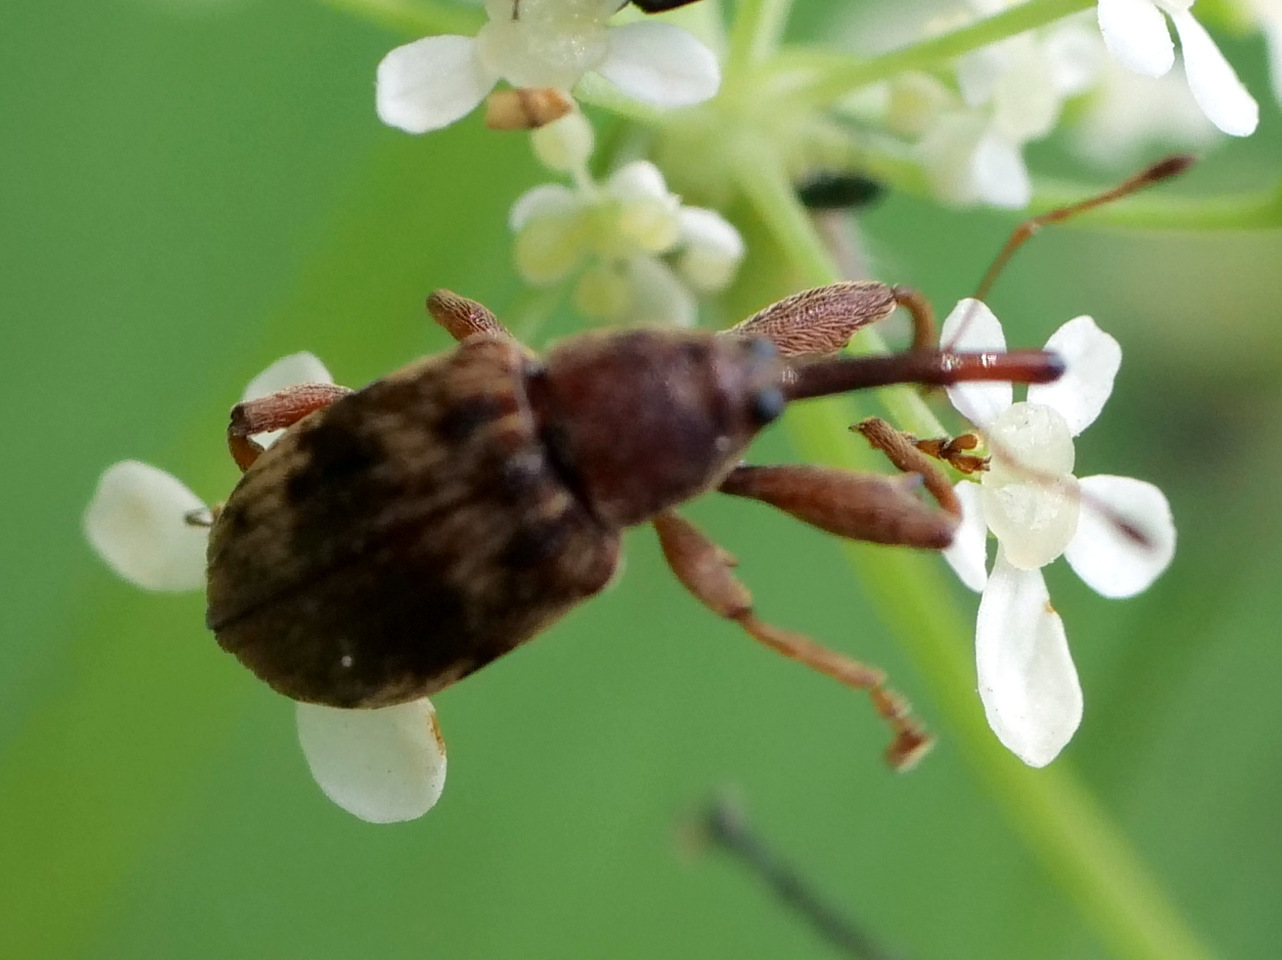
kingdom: Animalia
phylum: Arthropoda
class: Insecta
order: Coleoptera
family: Curculionidae
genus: Anthonomus
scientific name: Anthonomus rectirostris
